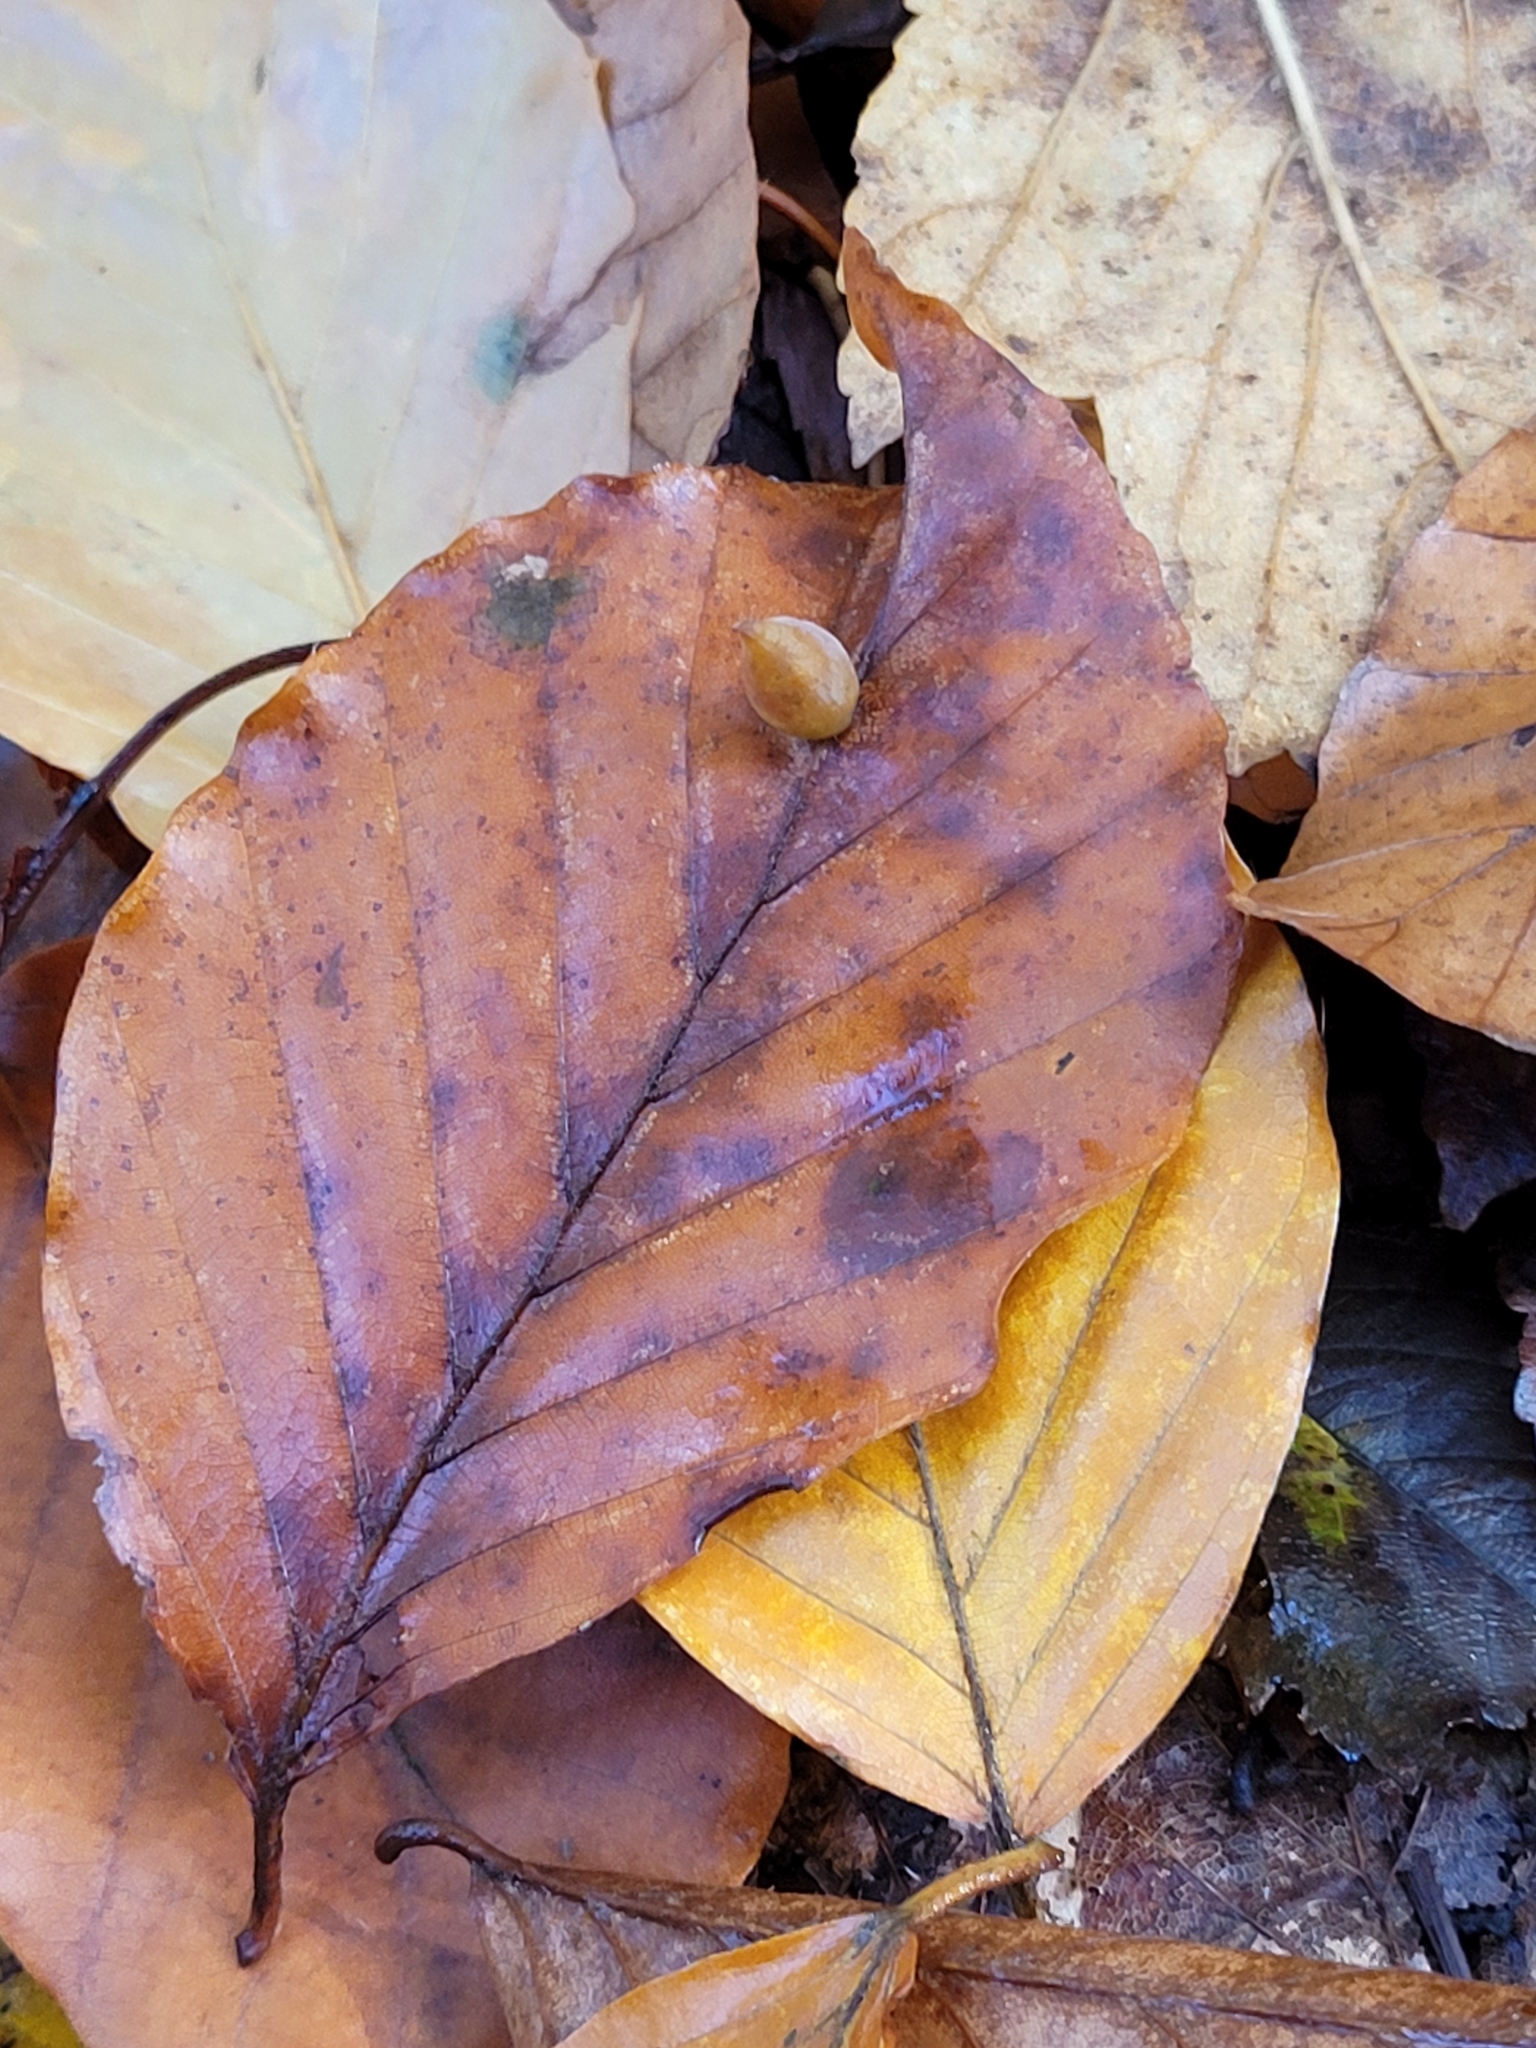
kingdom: Animalia
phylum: Arthropoda
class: Insecta
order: Diptera
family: Cecidomyiidae
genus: Mikiola
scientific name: Mikiola fagi
